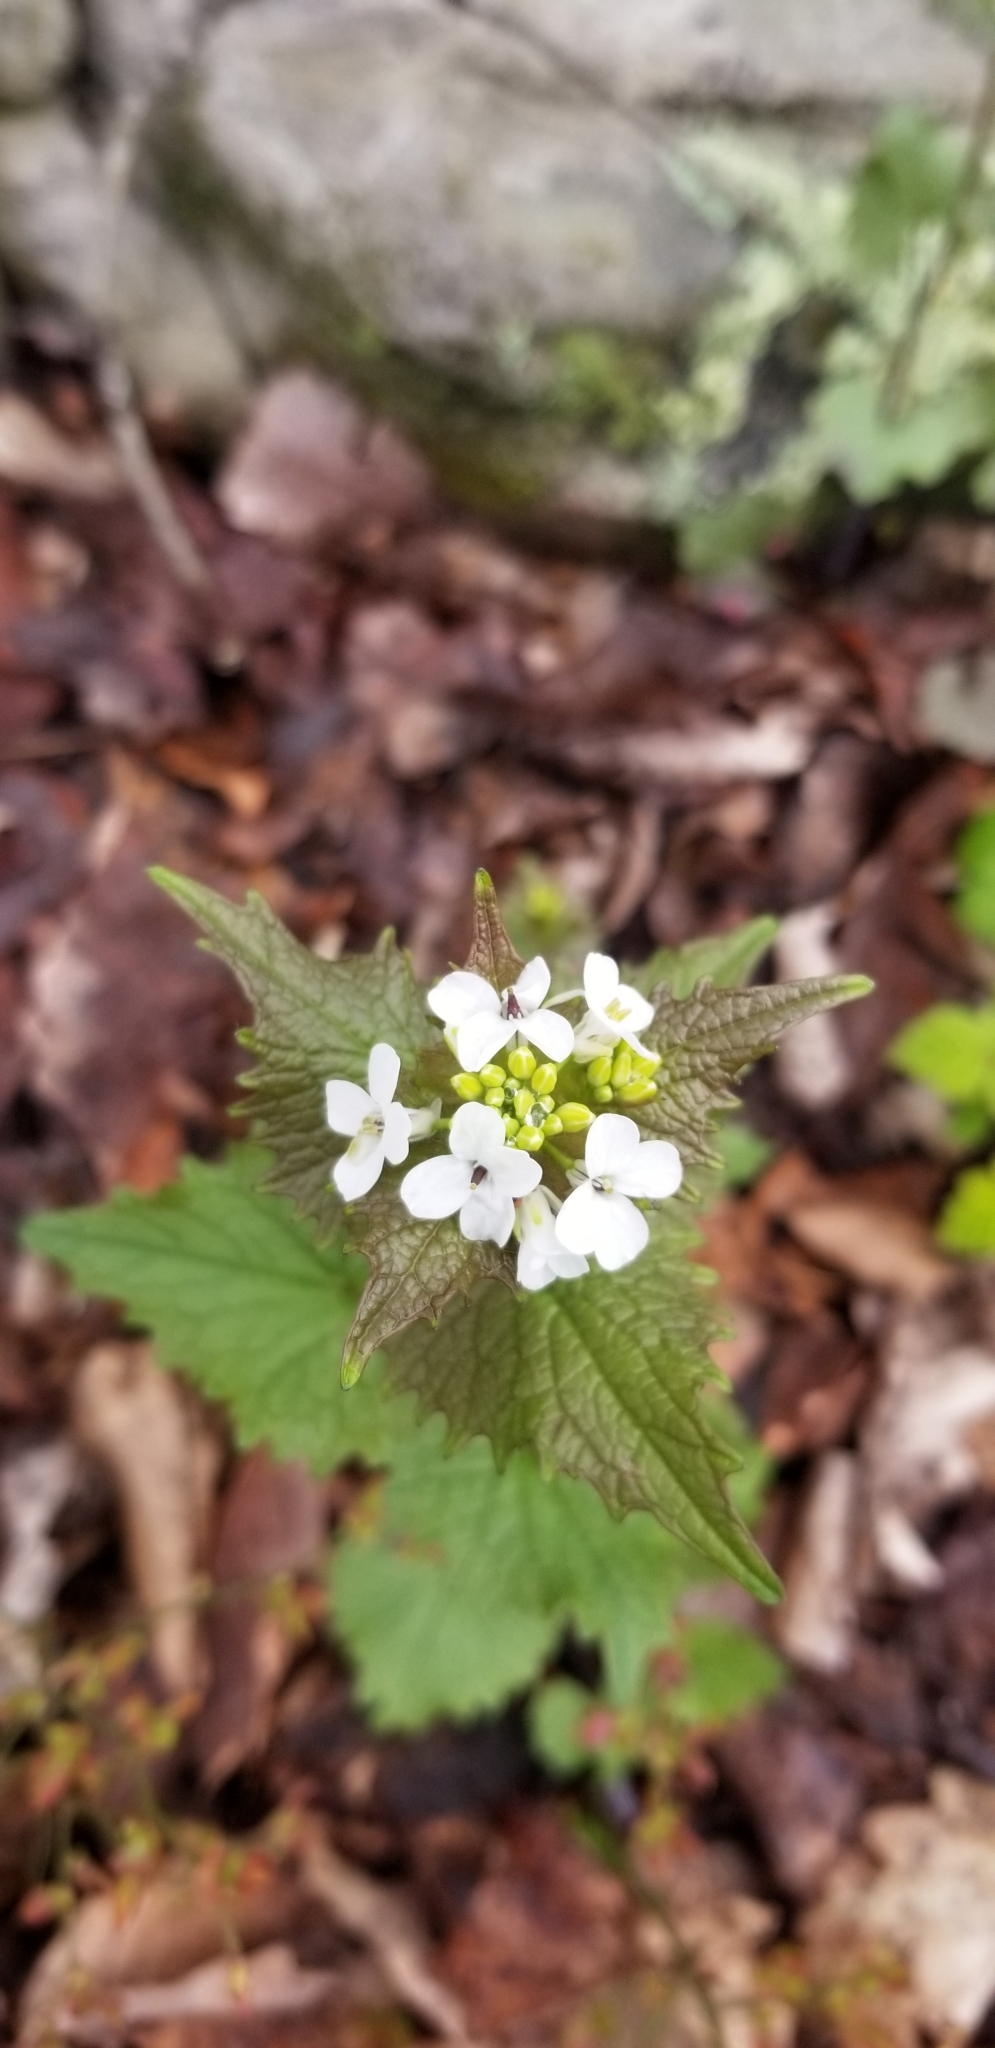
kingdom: Plantae
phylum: Tracheophyta
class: Magnoliopsida
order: Brassicales
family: Brassicaceae
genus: Alliaria
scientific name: Alliaria petiolata
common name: Garlic mustard
